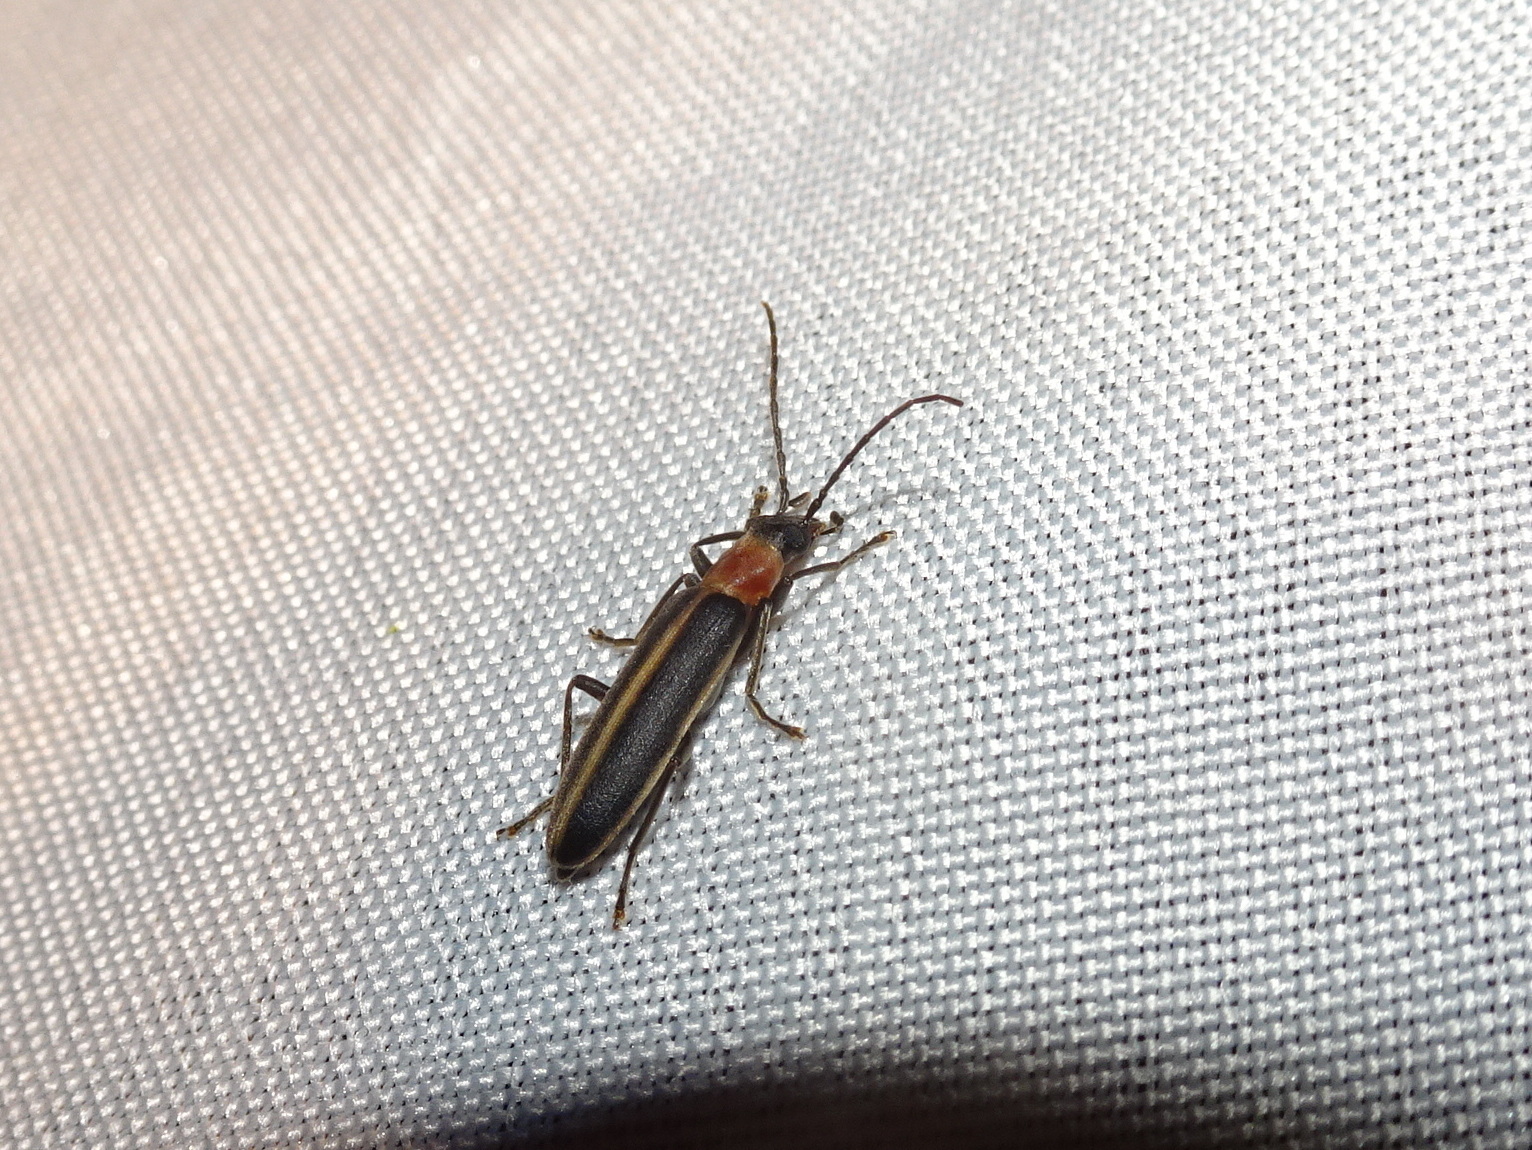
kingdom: Animalia
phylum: Arthropoda
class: Insecta
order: Coleoptera
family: Oedemeridae
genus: Oxycopis
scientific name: Oxycopis mimetica
